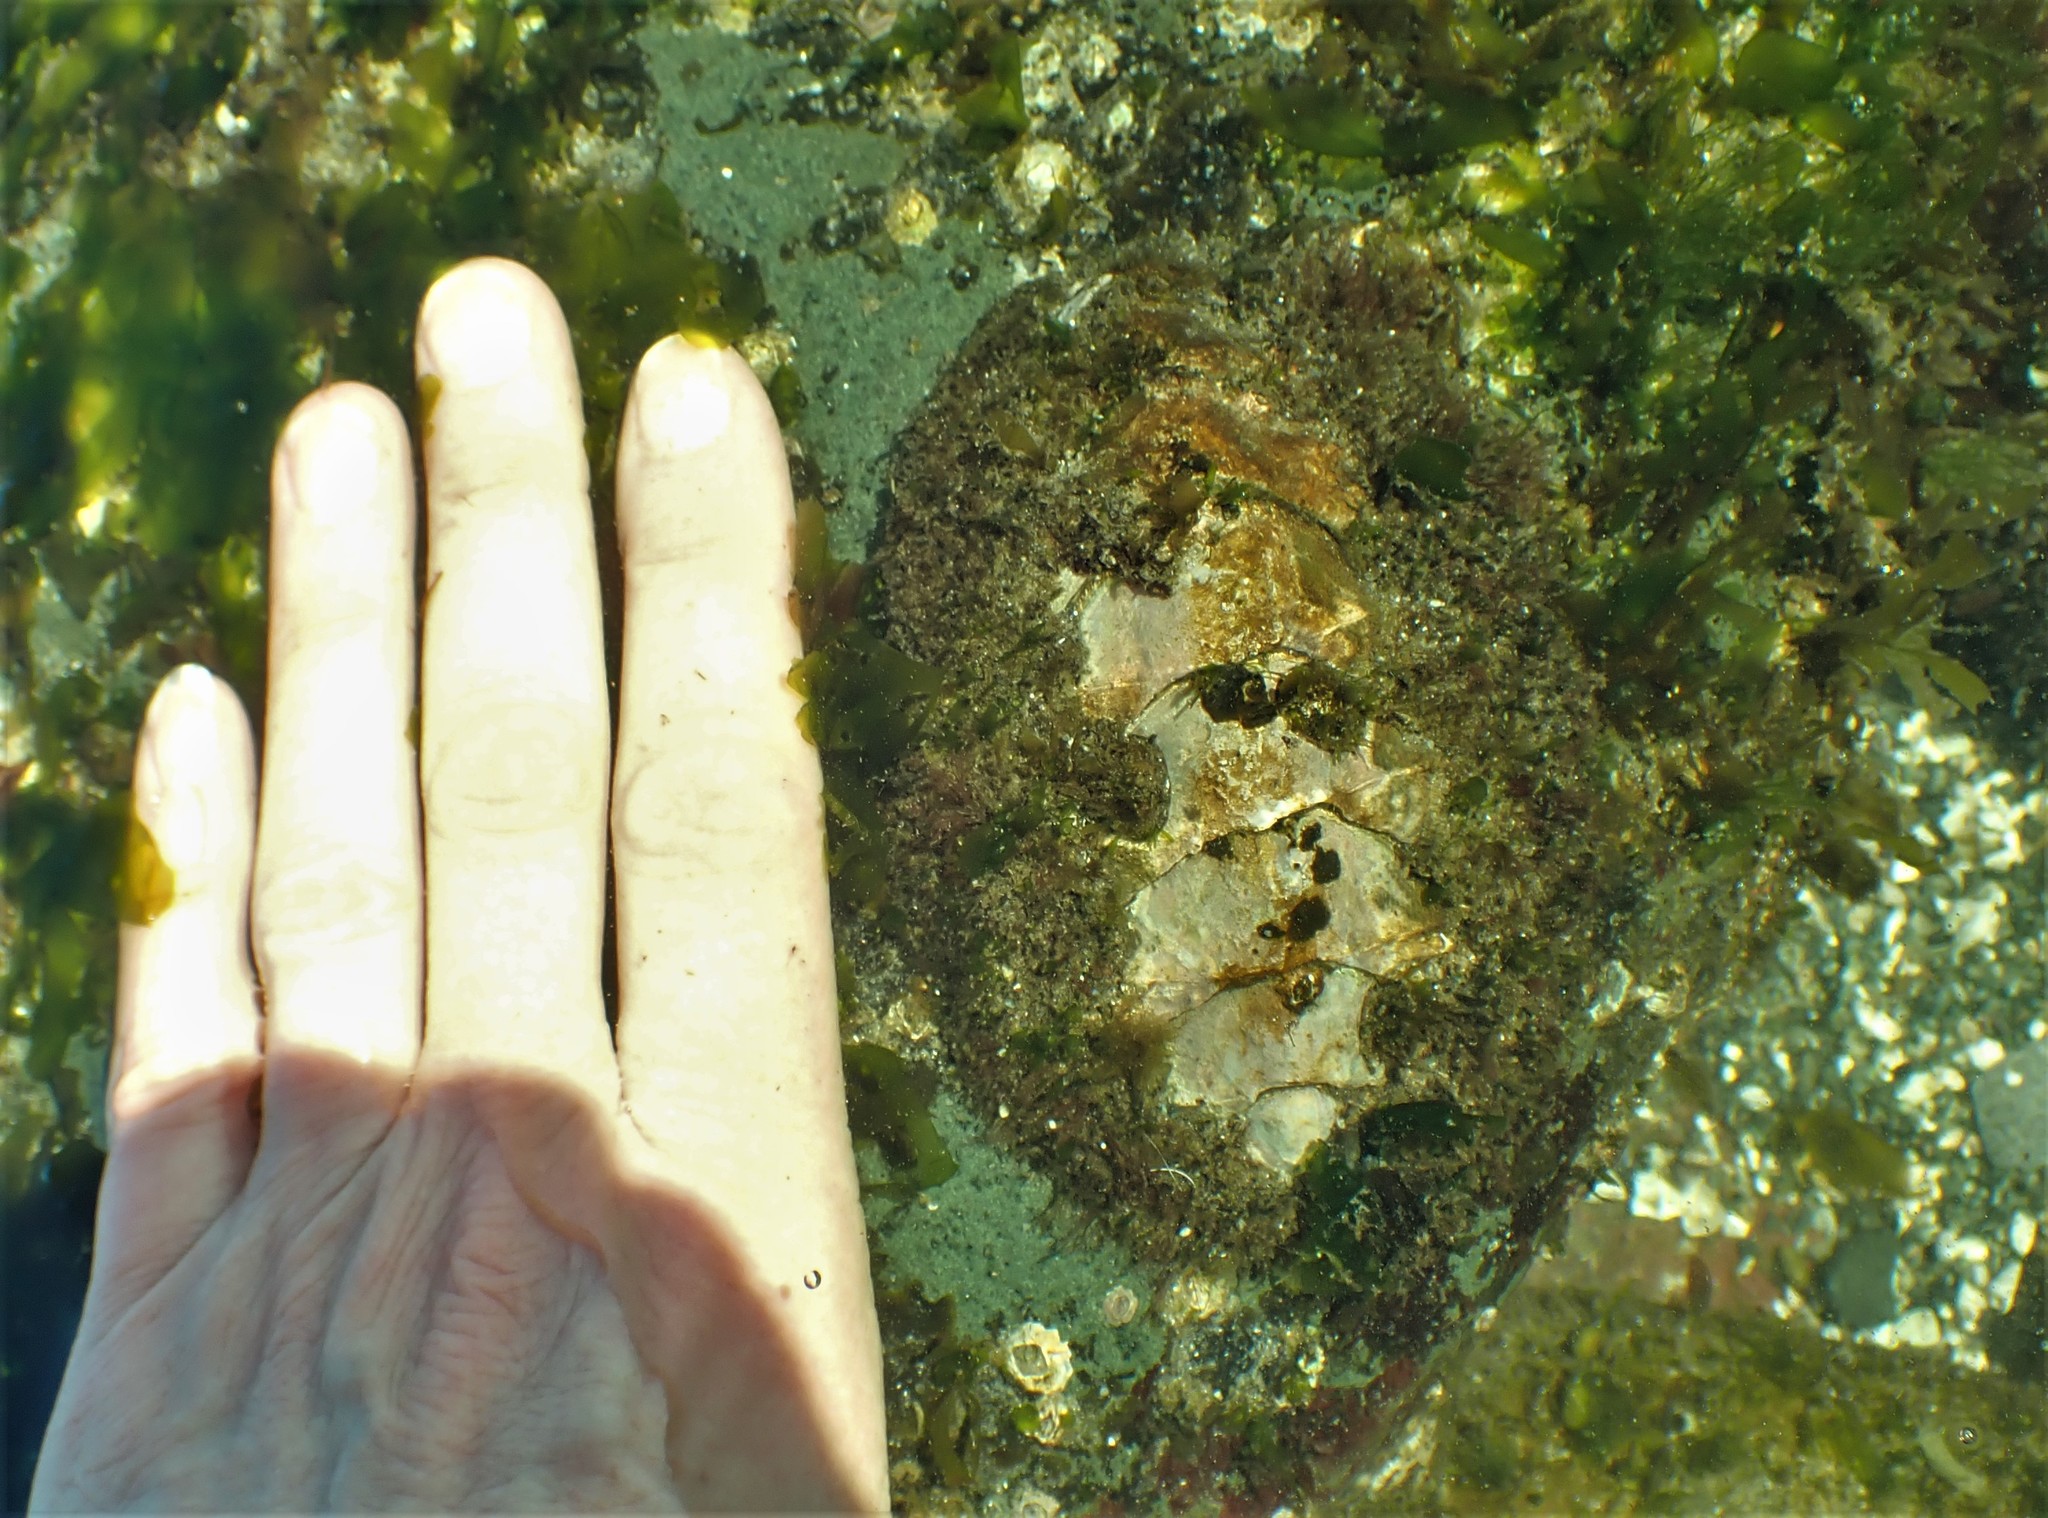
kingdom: Animalia
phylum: Mollusca
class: Polyplacophora
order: Chitonida
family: Mopaliidae
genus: Mopalia
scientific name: Mopalia muscosa
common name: Mossy chiton
